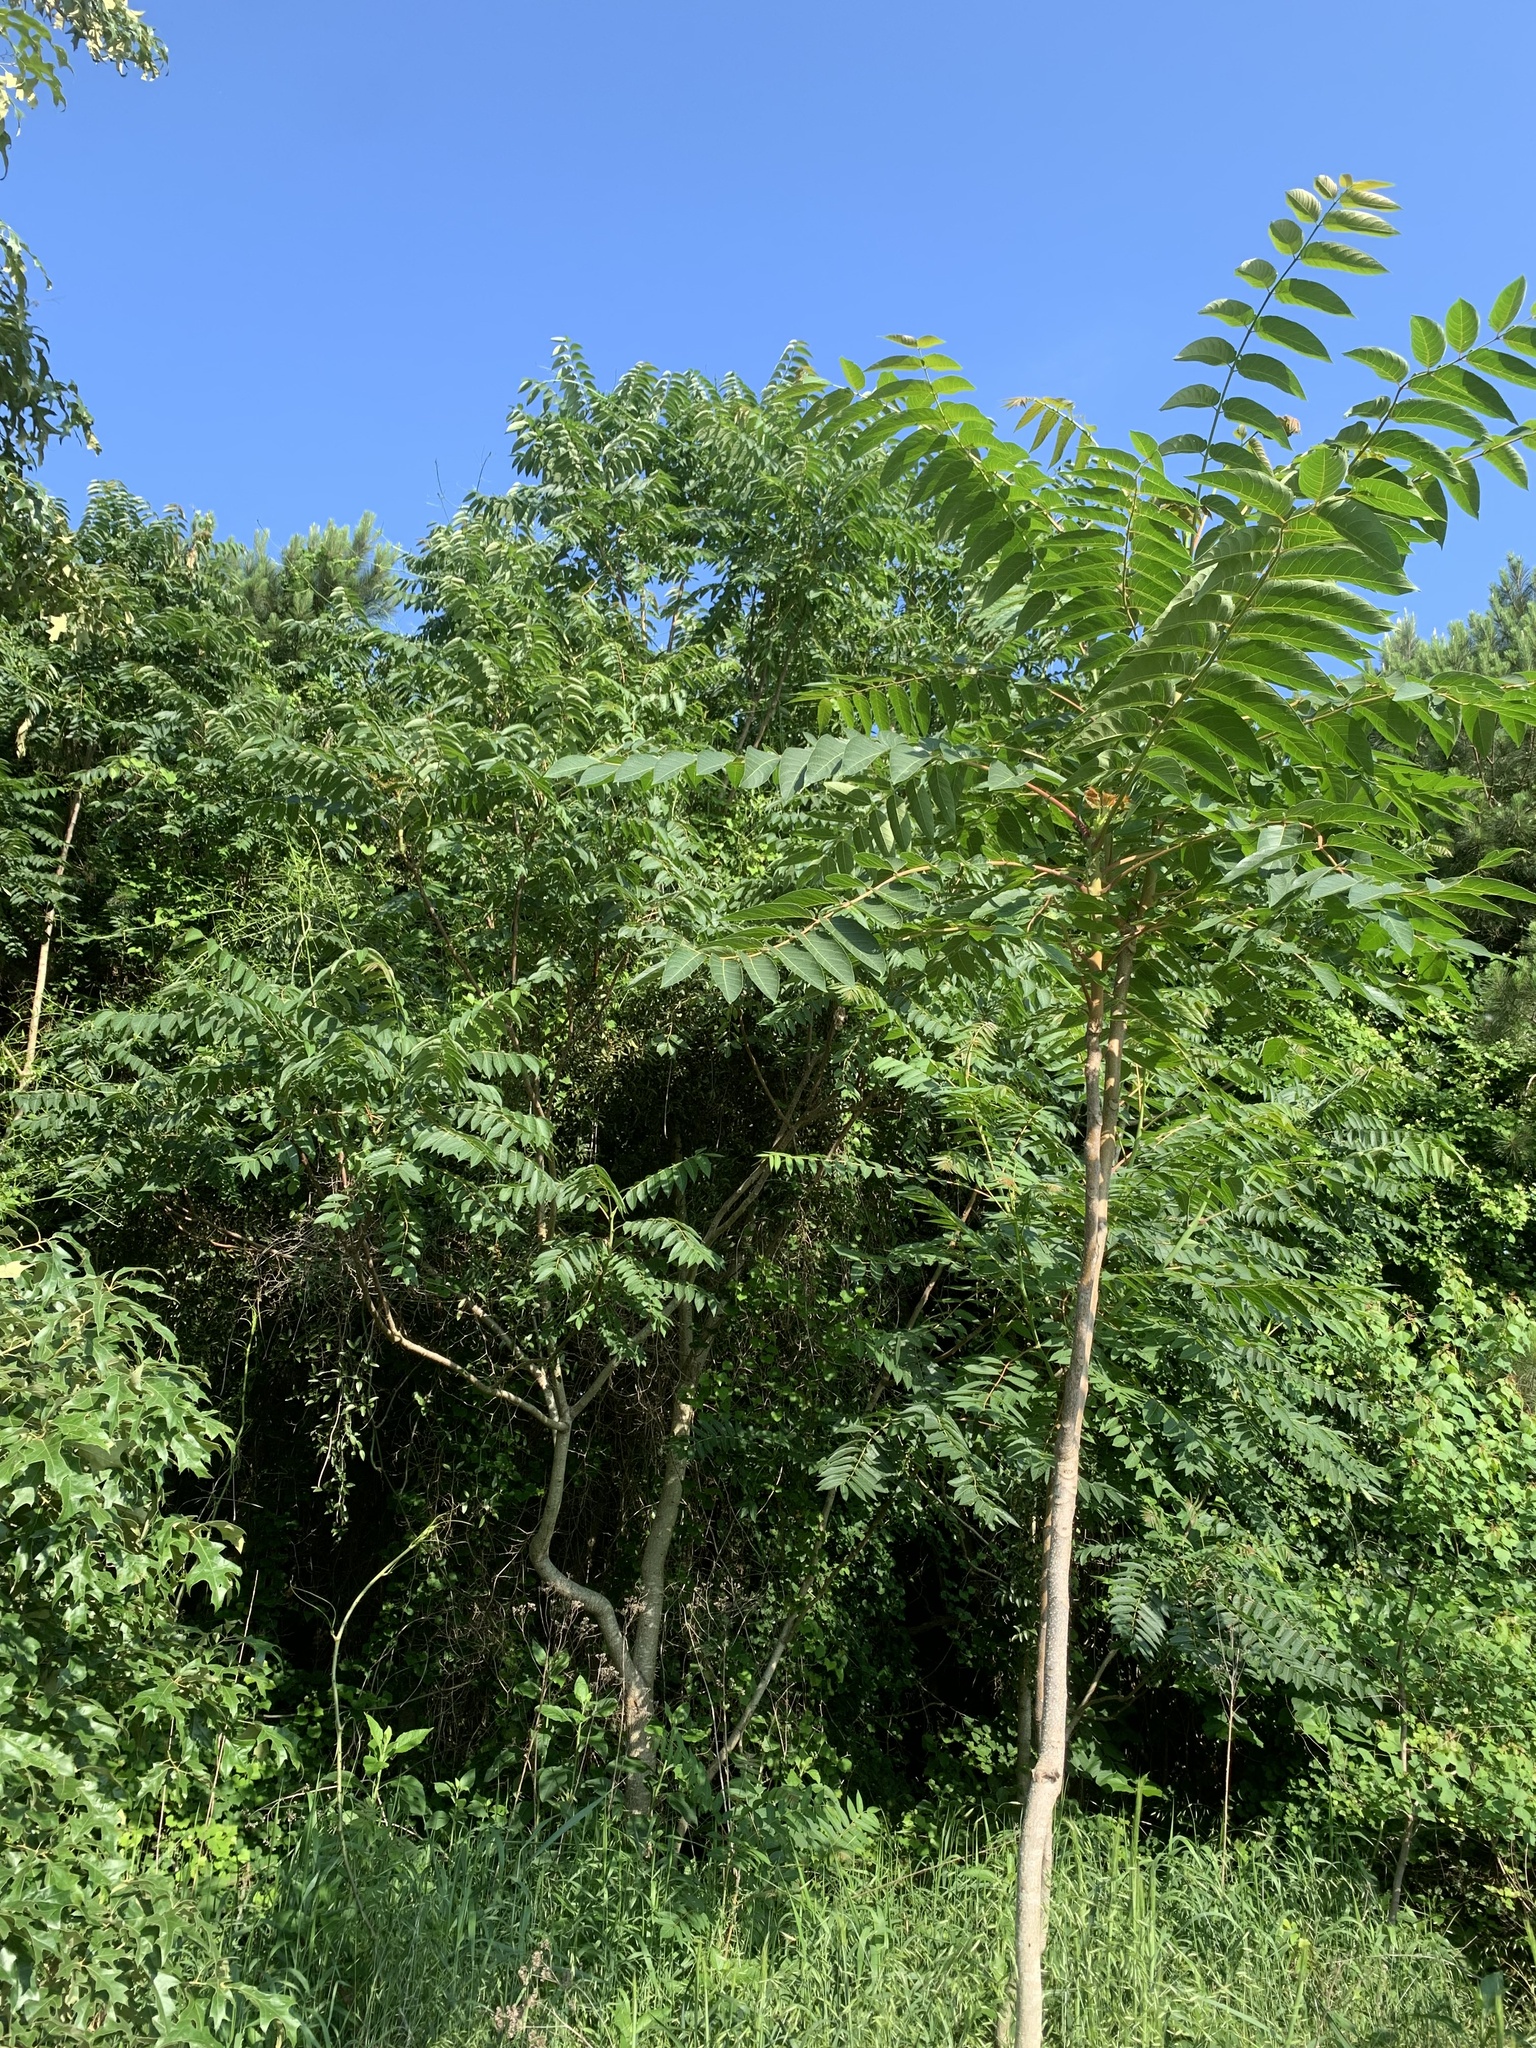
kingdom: Plantae
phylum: Tracheophyta
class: Magnoliopsida
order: Sapindales
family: Simaroubaceae
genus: Ailanthus
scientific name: Ailanthus altissima
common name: Tree-of-heaven
